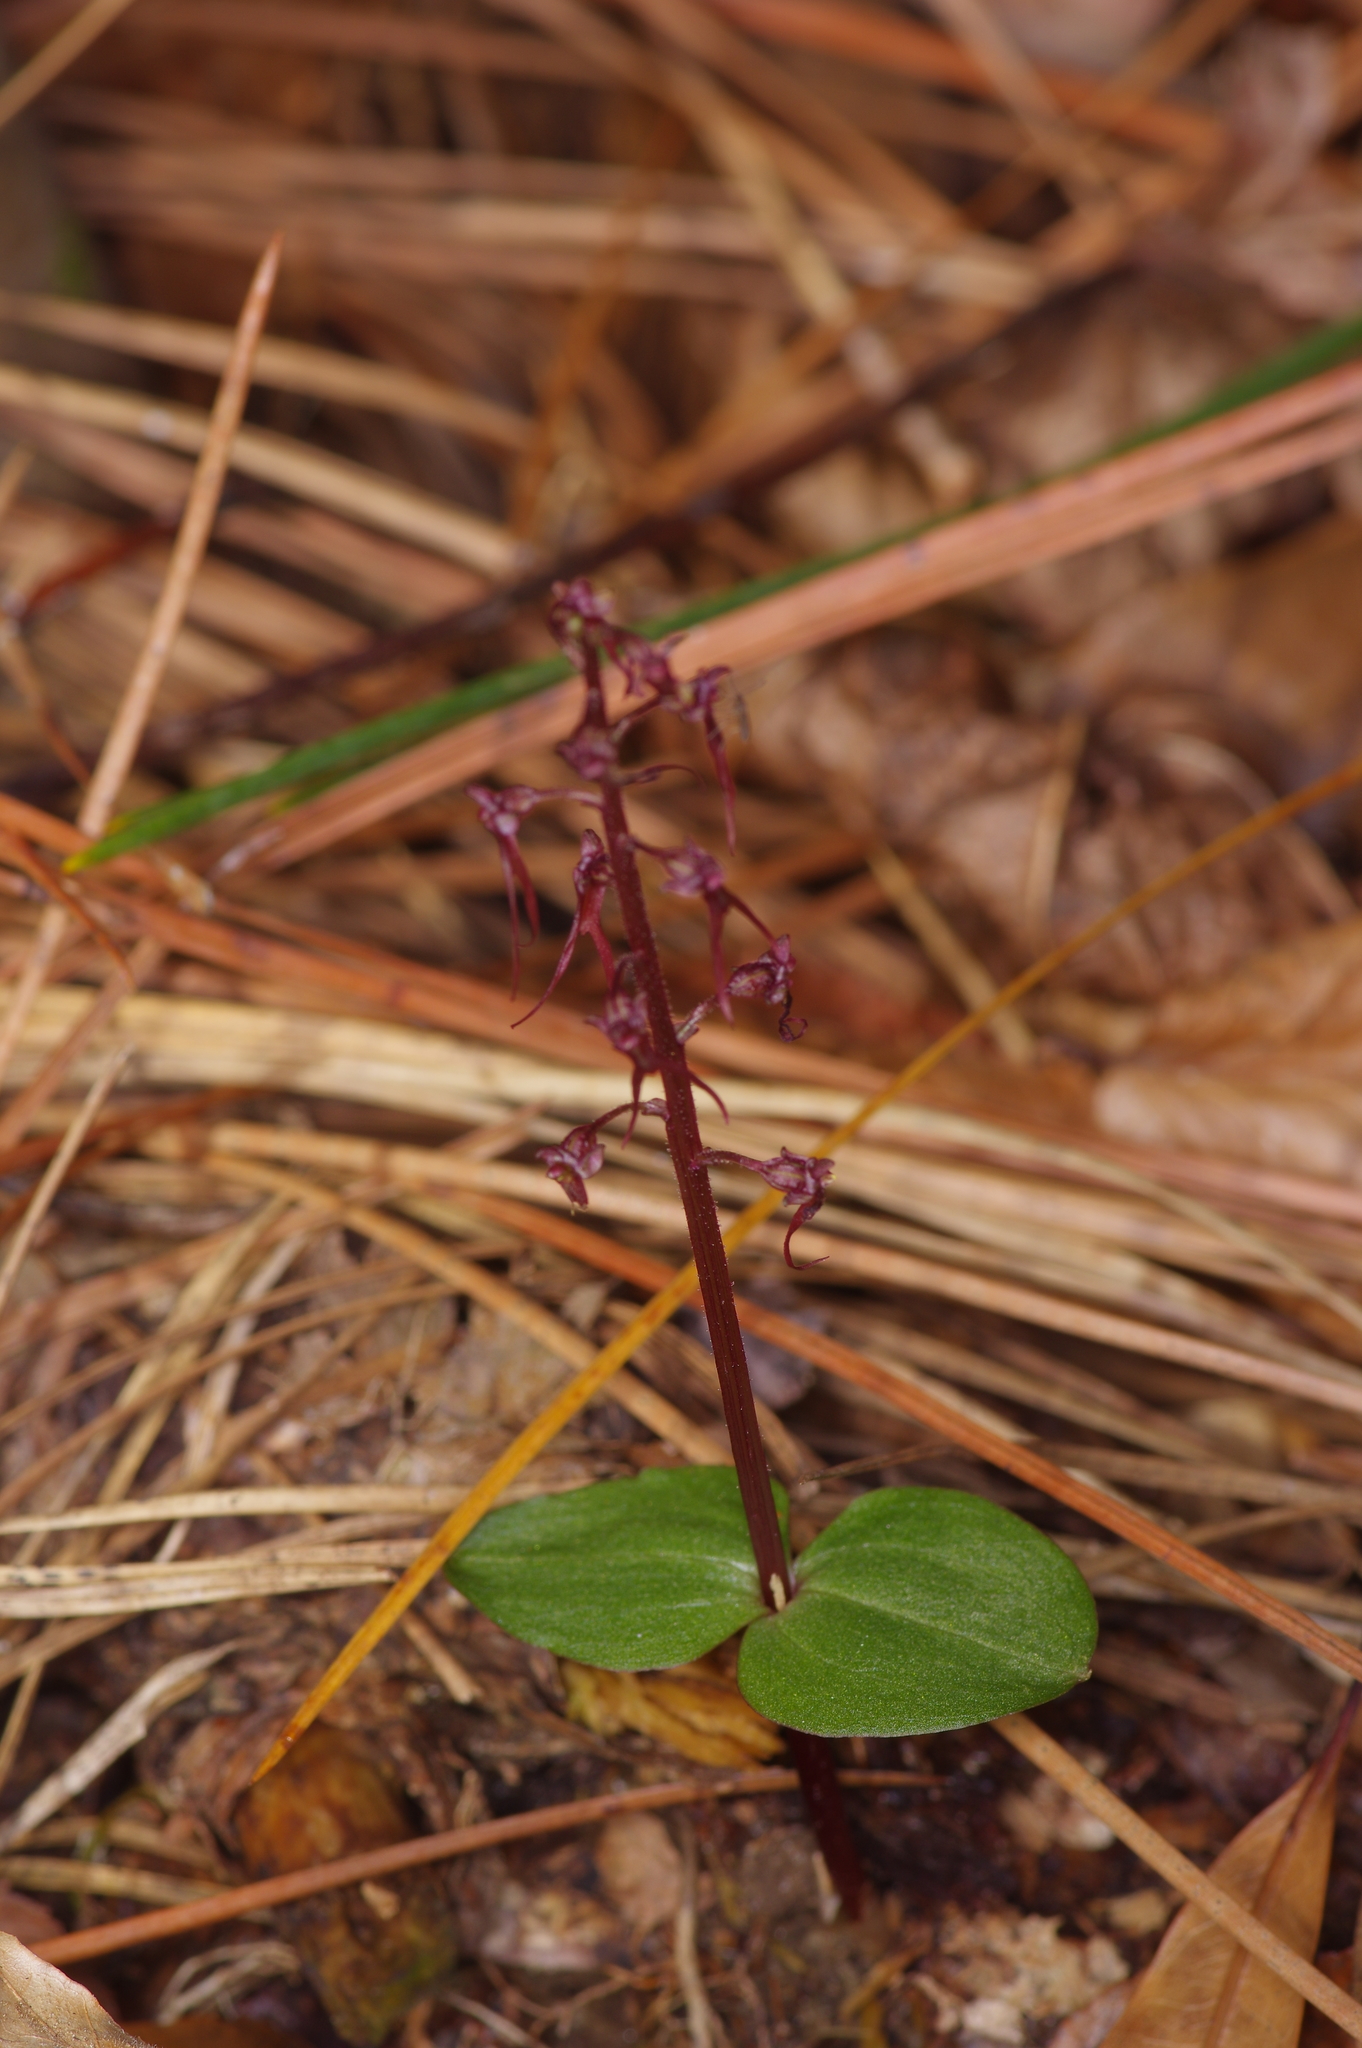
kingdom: Plantae
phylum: Tracheophyta
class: Liliopsida
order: Asparagales
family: Orchidaceae
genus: Neottia
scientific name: Neottia bifolia
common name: Southern twayblade
